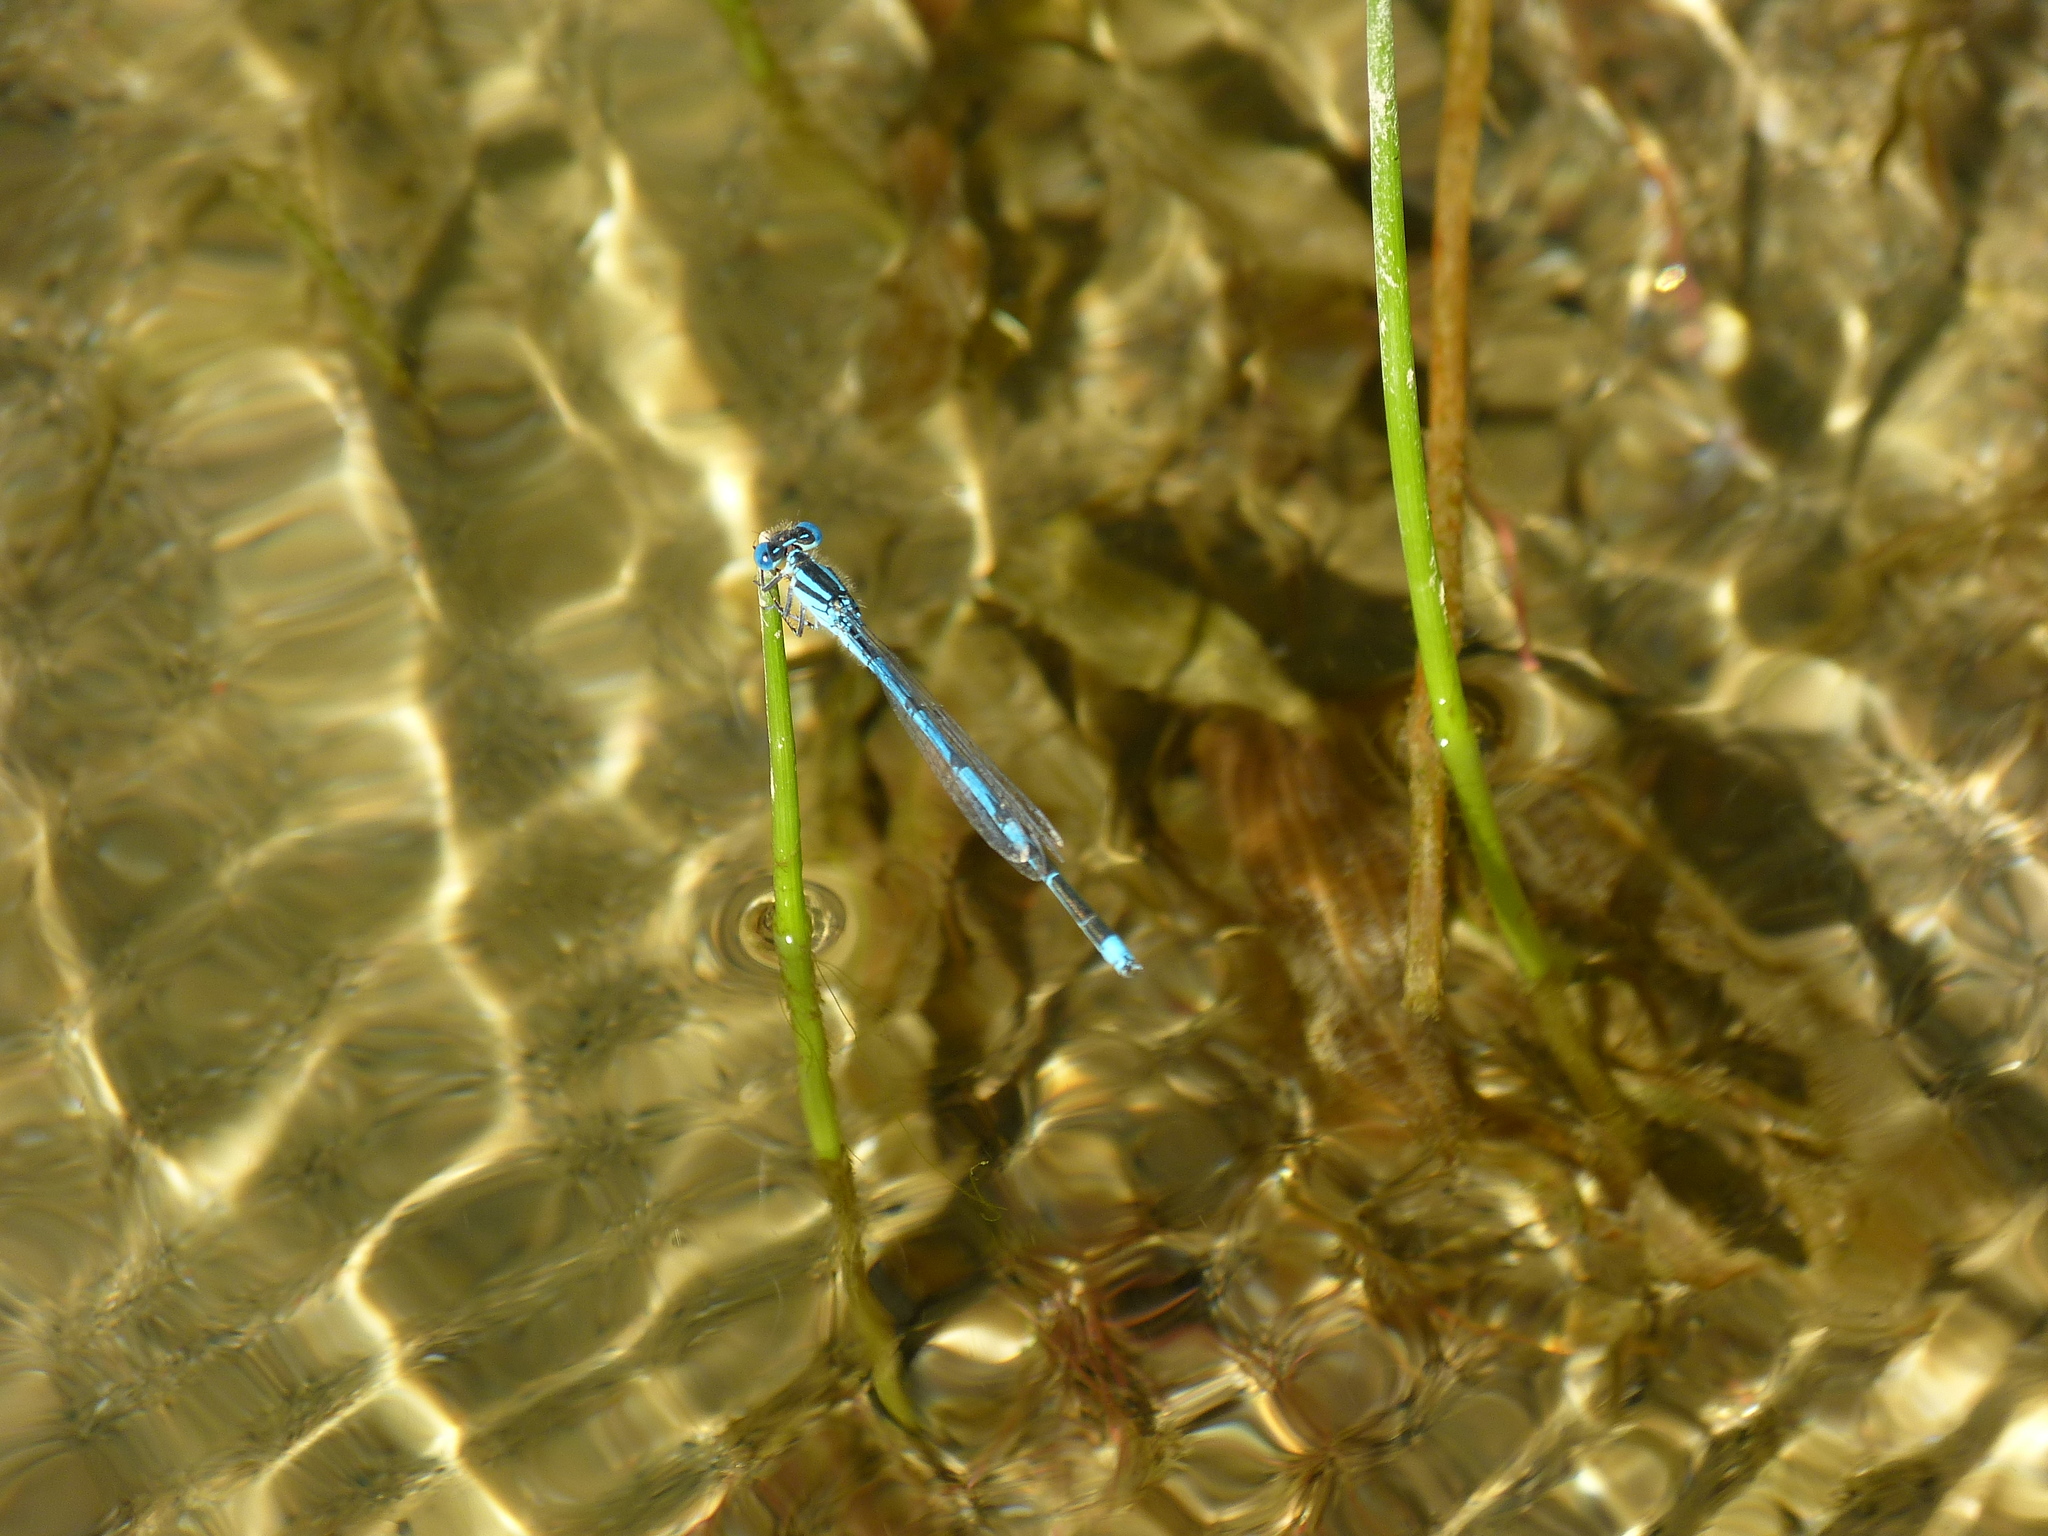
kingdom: Animalia
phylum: Arthropoda
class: Insecta
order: Odonata
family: Coenagrionidae
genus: Erythromma
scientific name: Erythromma lindenii
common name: Blue-eye
